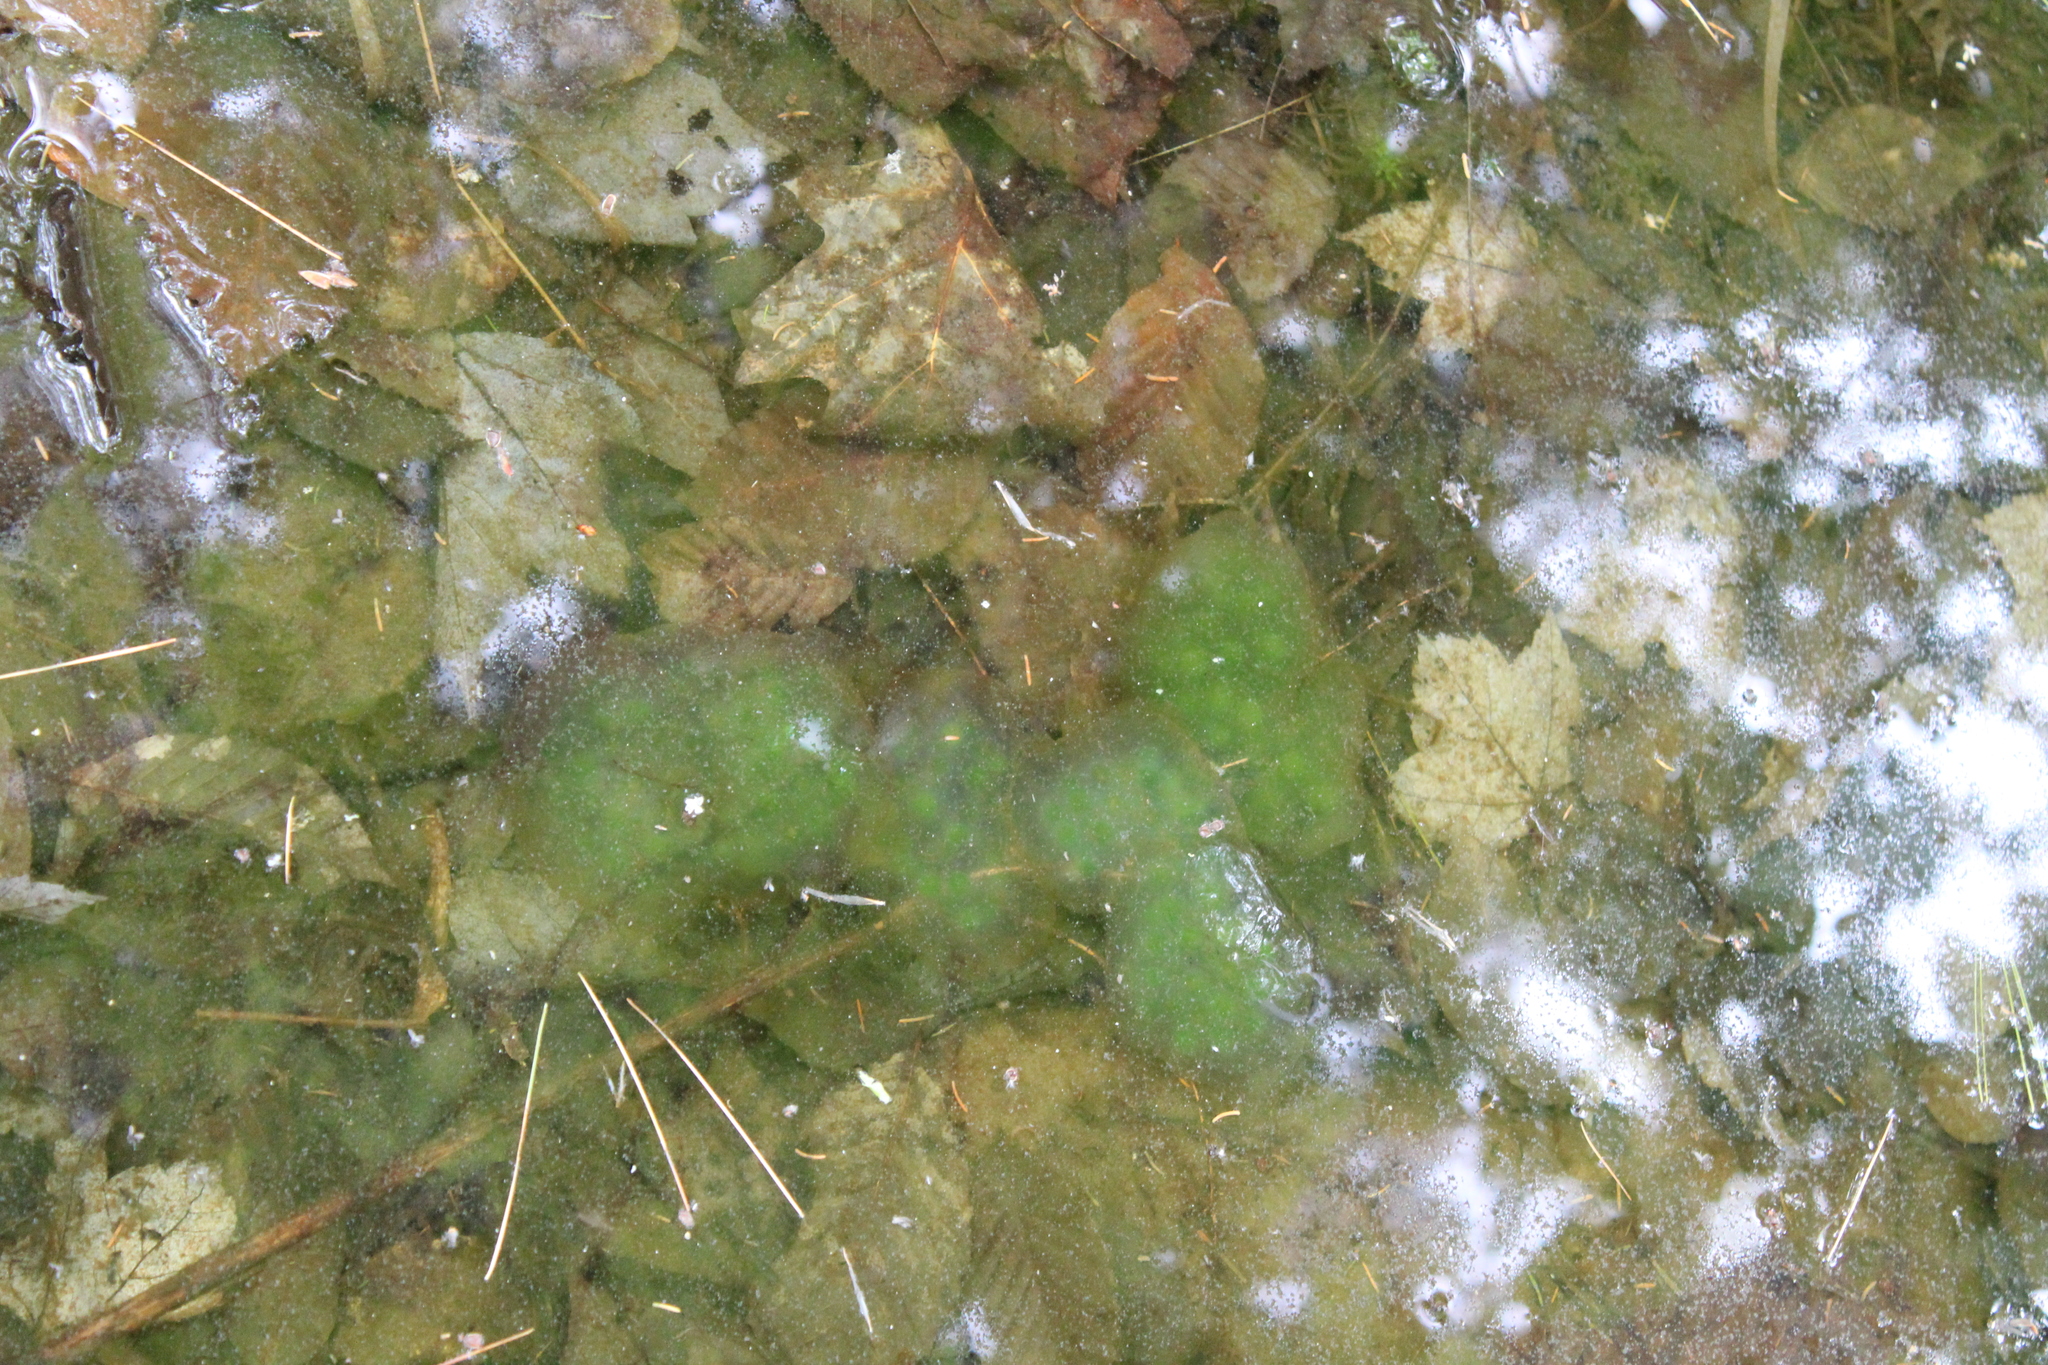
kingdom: Animalia
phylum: Chordata
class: Amphibia
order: Caudata
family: Ambystomatidae
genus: Ambystoma
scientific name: Ambystoma maculatum
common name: Spotted salamander
